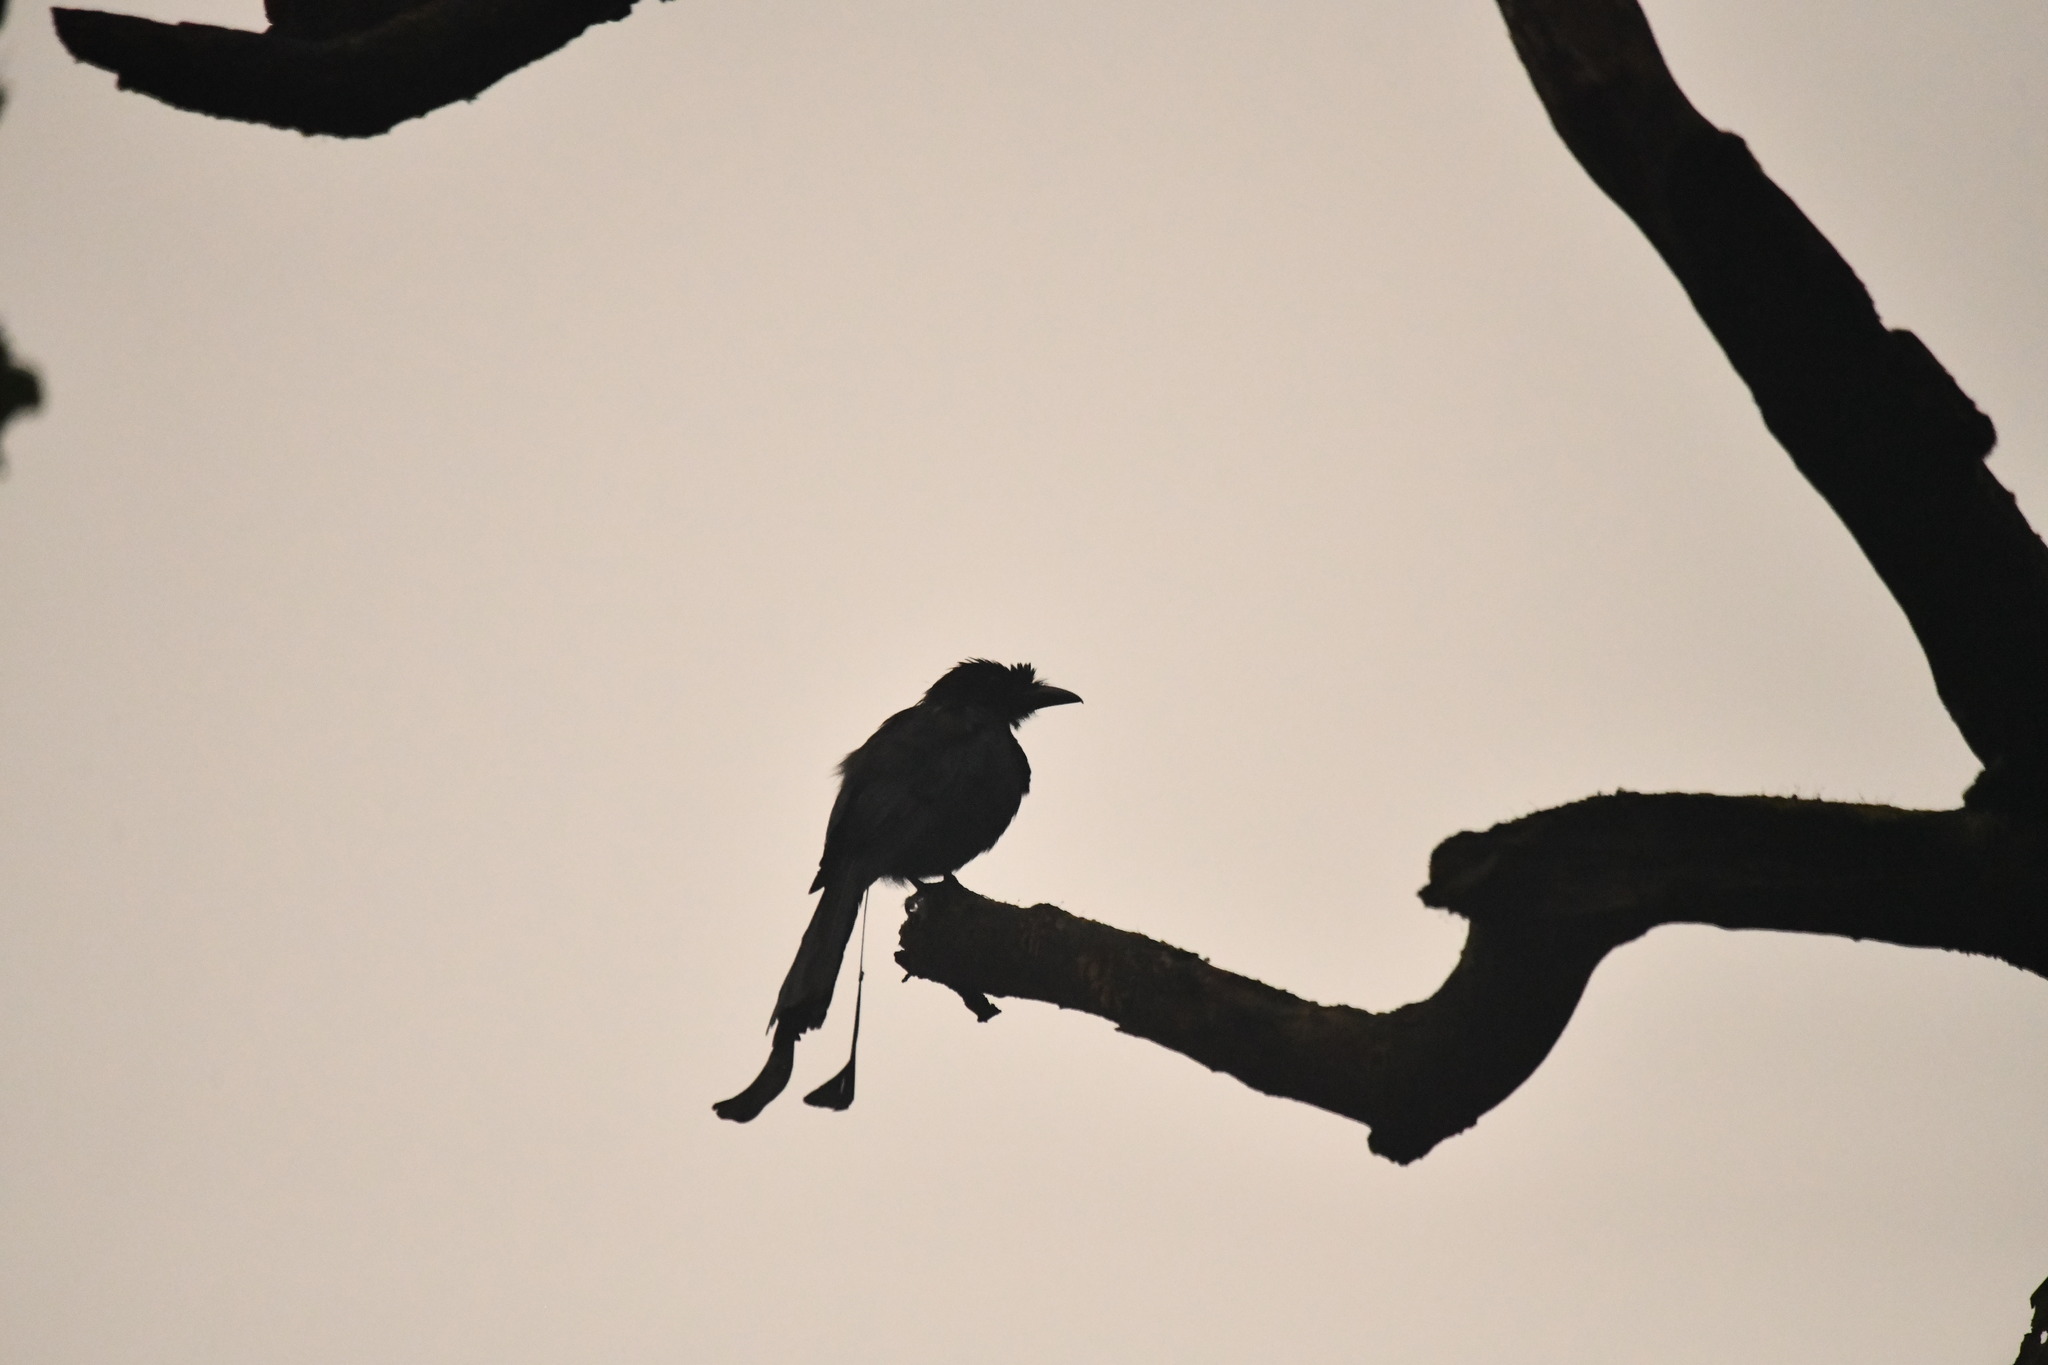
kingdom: Animalia
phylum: Chordata
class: Aves
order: Passeriformes
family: Dicruridae
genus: Dicrurus
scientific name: Dicrurus paradiseus
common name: Greater racket-tailed drongo
